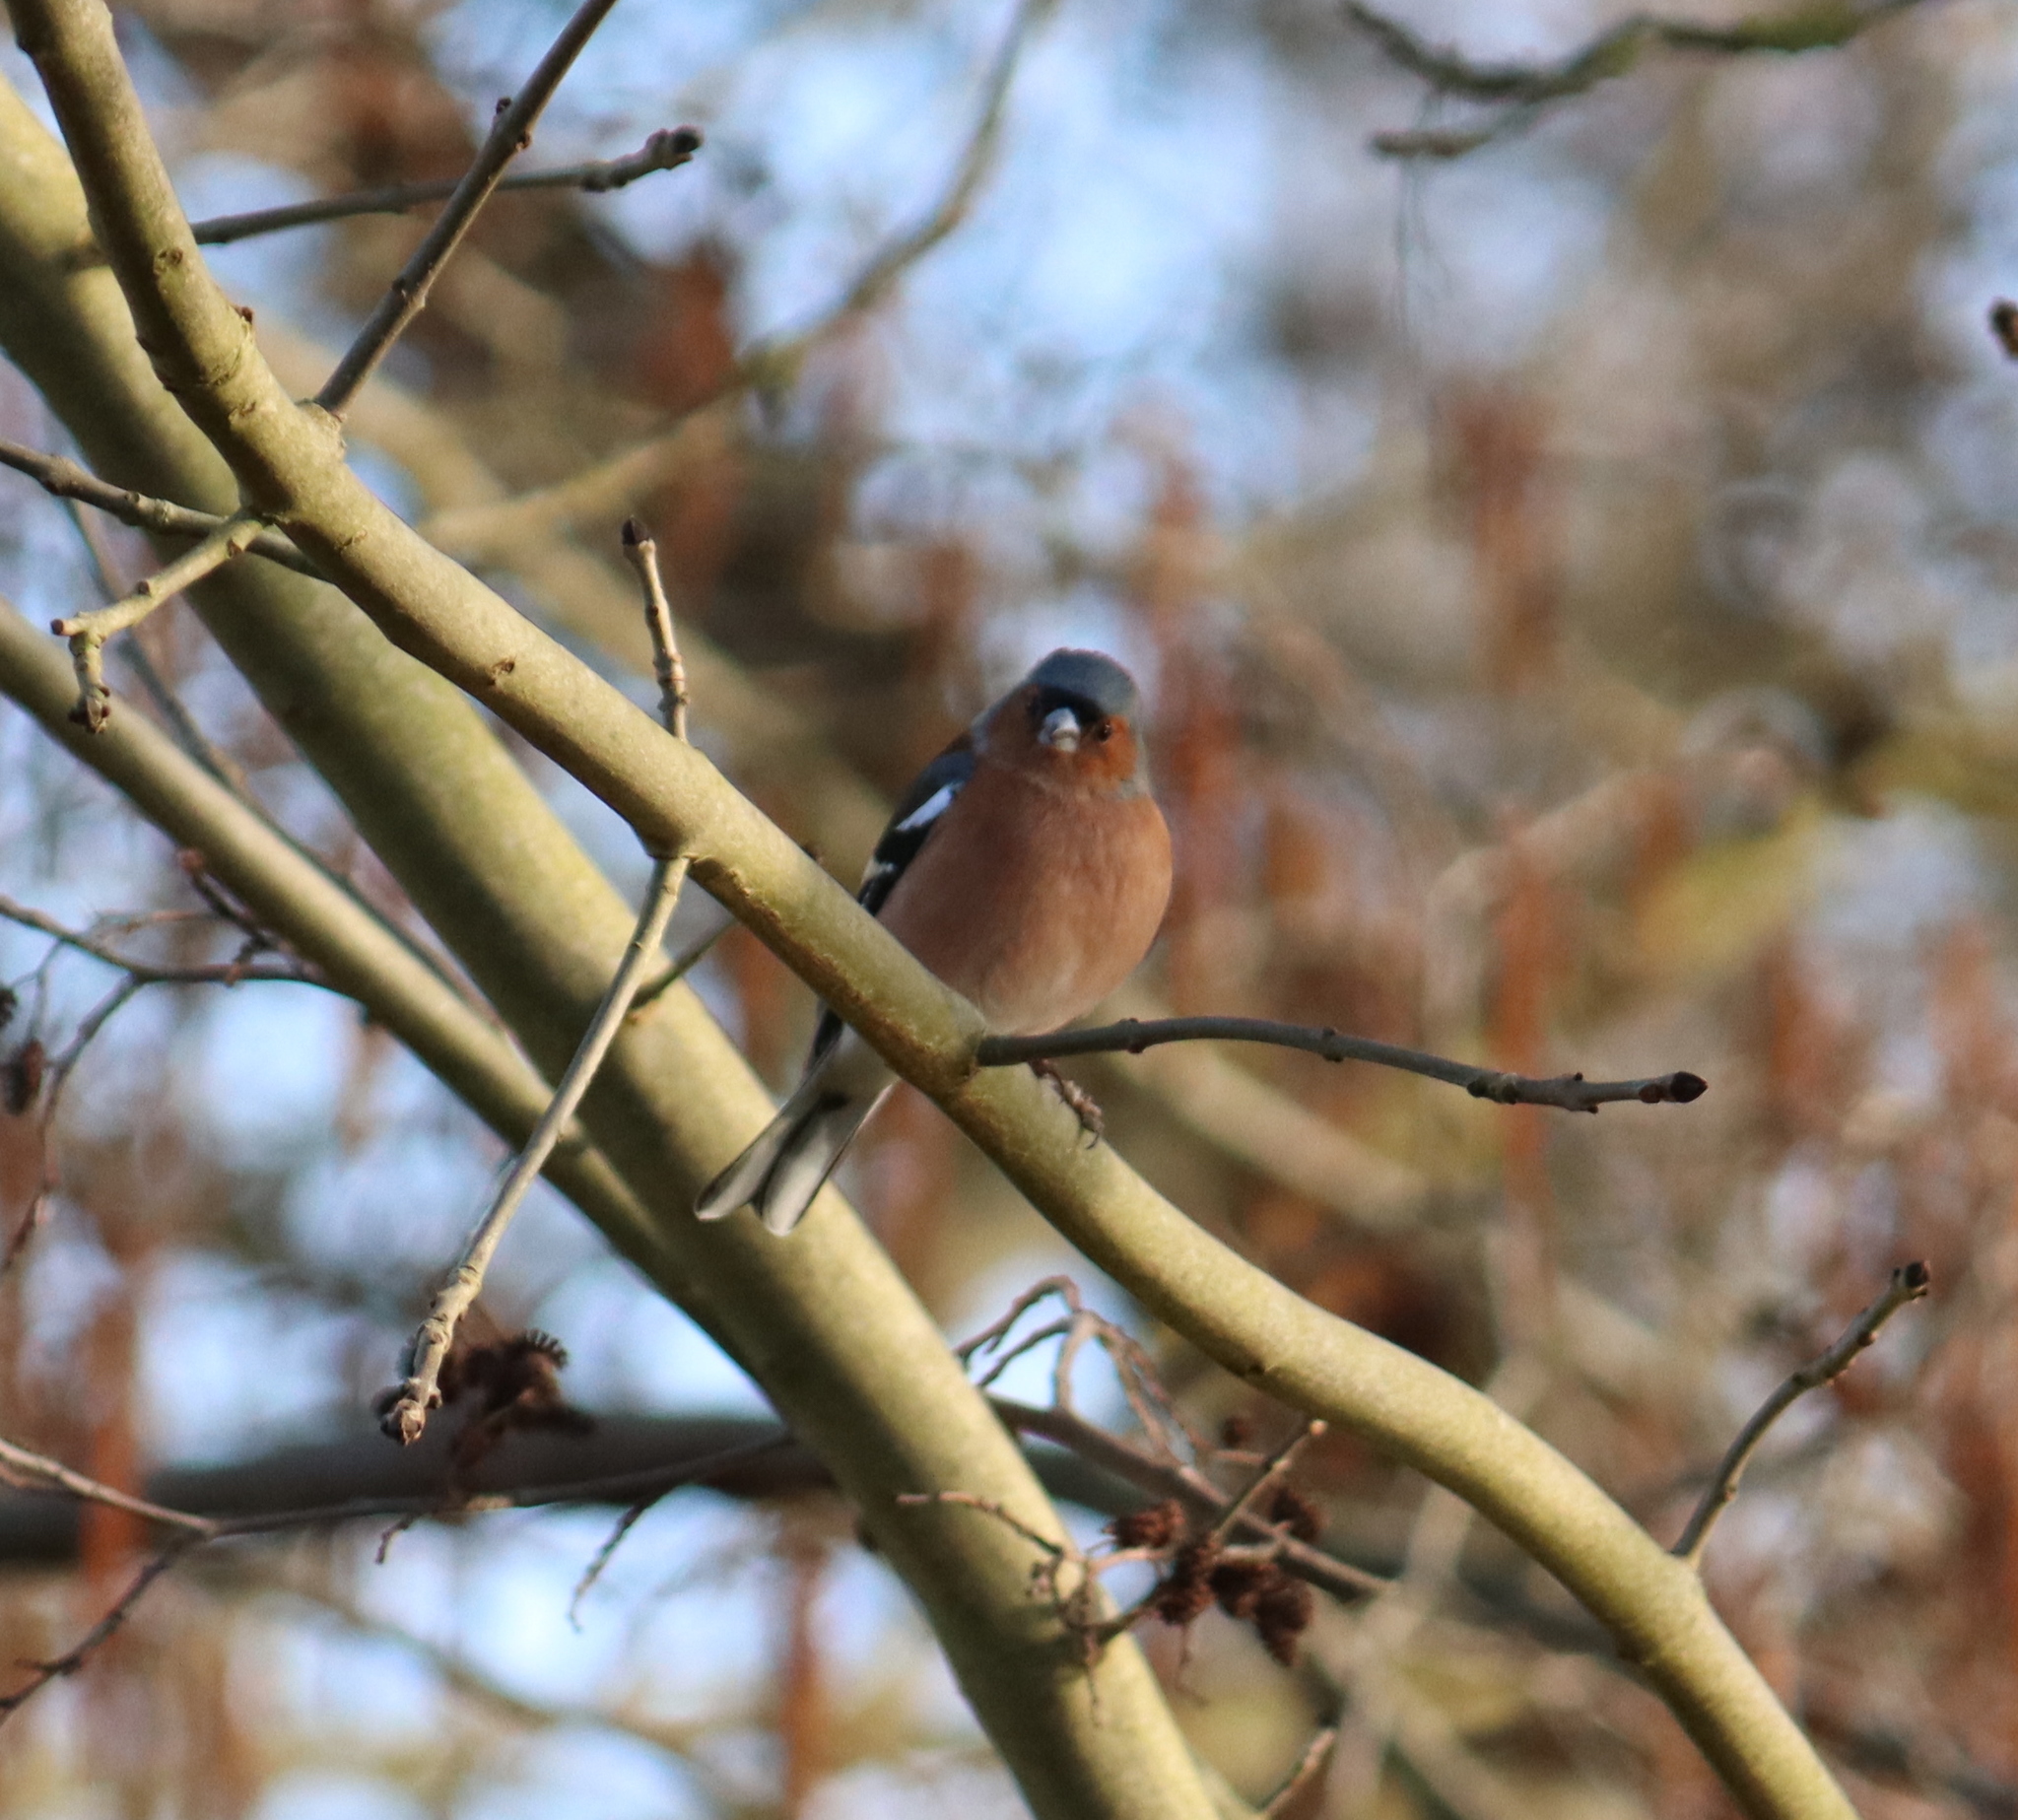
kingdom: Animalia
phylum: Chordata
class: Aves
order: Passeriformes
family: Fringillidae
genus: Fringilla
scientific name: Fringilla coelebs
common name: Common chaffinch
